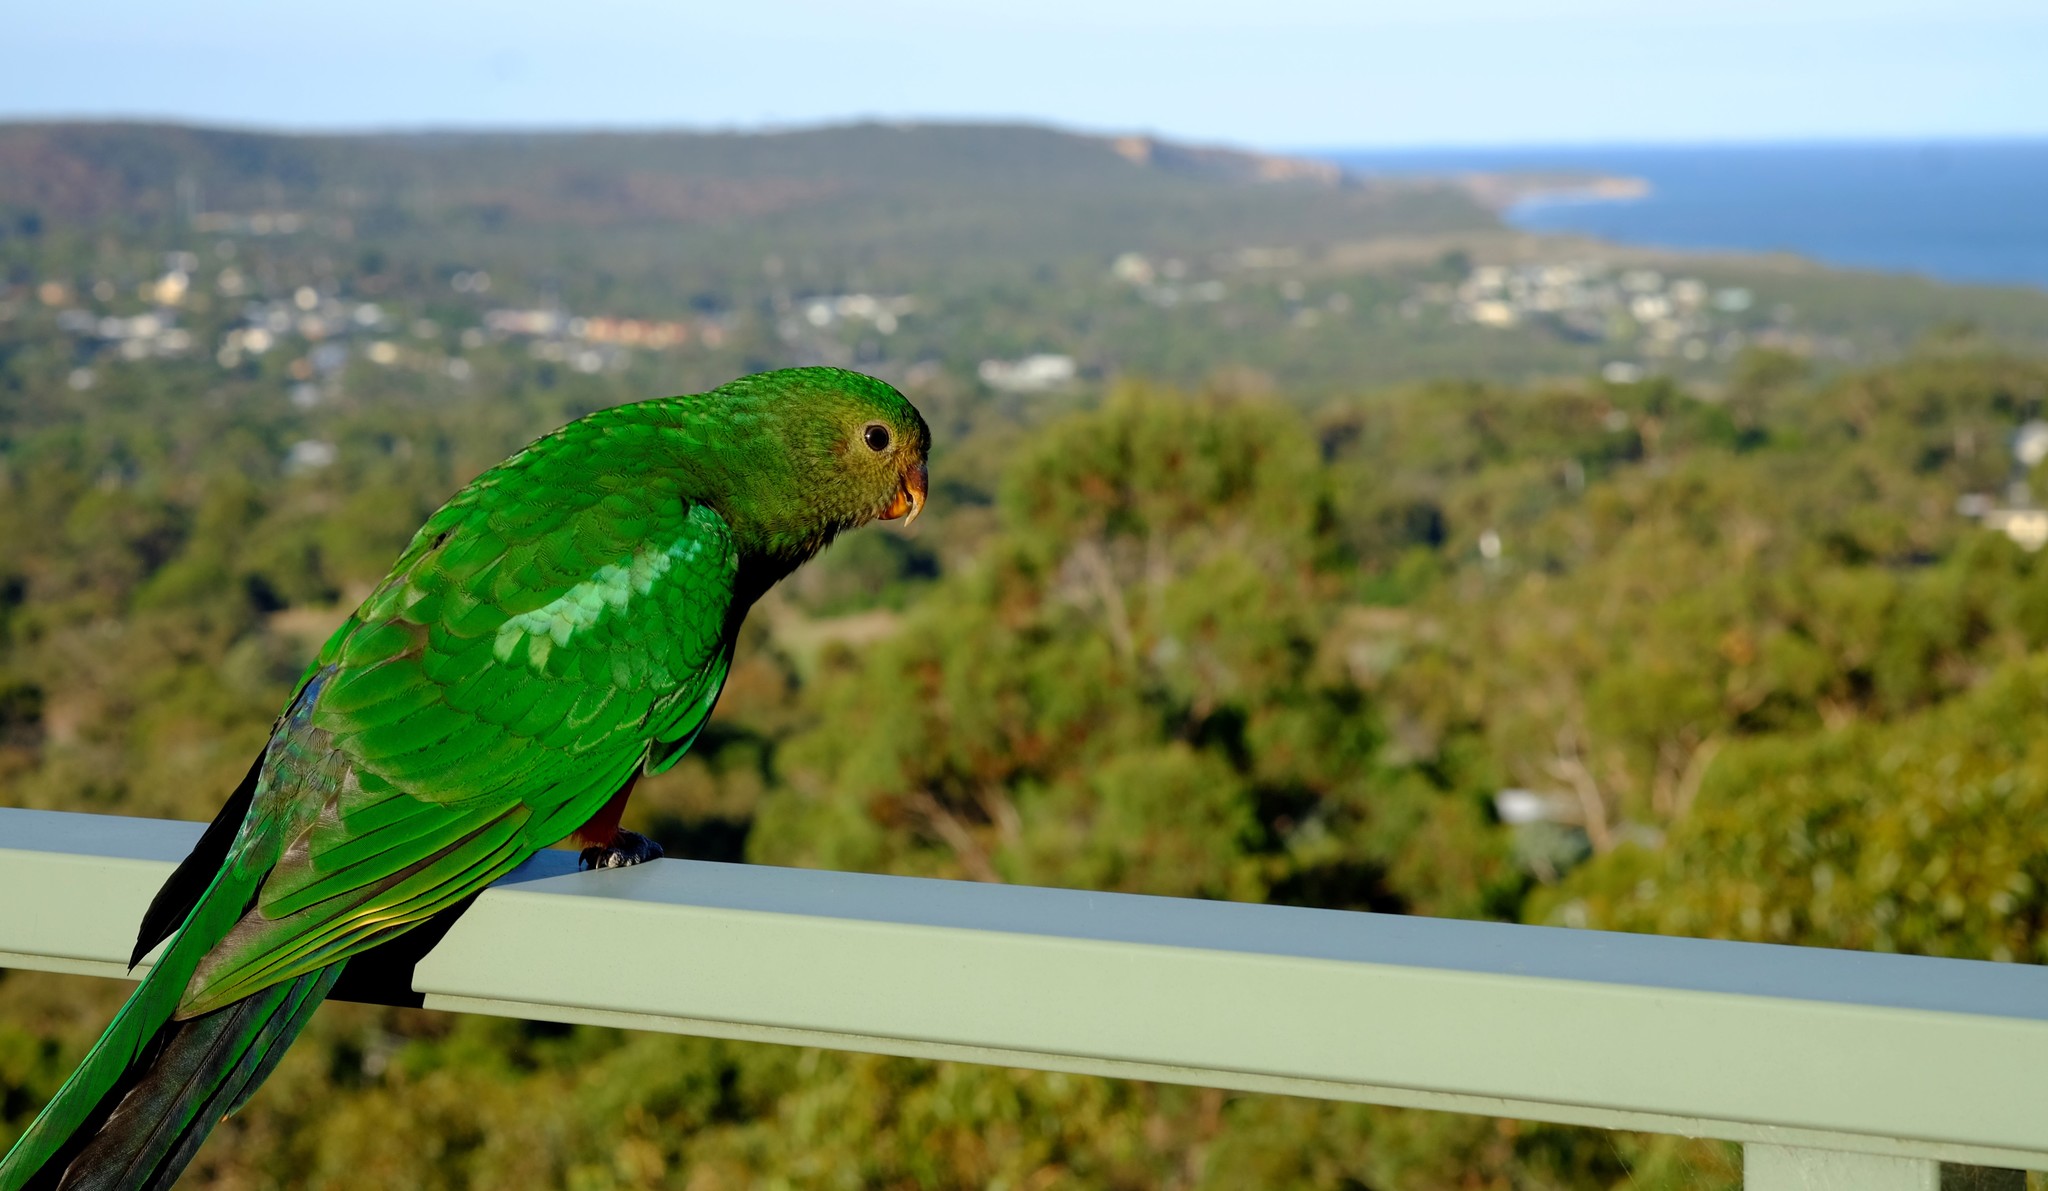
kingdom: Animalia
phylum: Chordata
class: Aves
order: Psittaciformes
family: Psittacidae
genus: Alisterus
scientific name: Alisterus scapularis
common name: Australian king parrot
